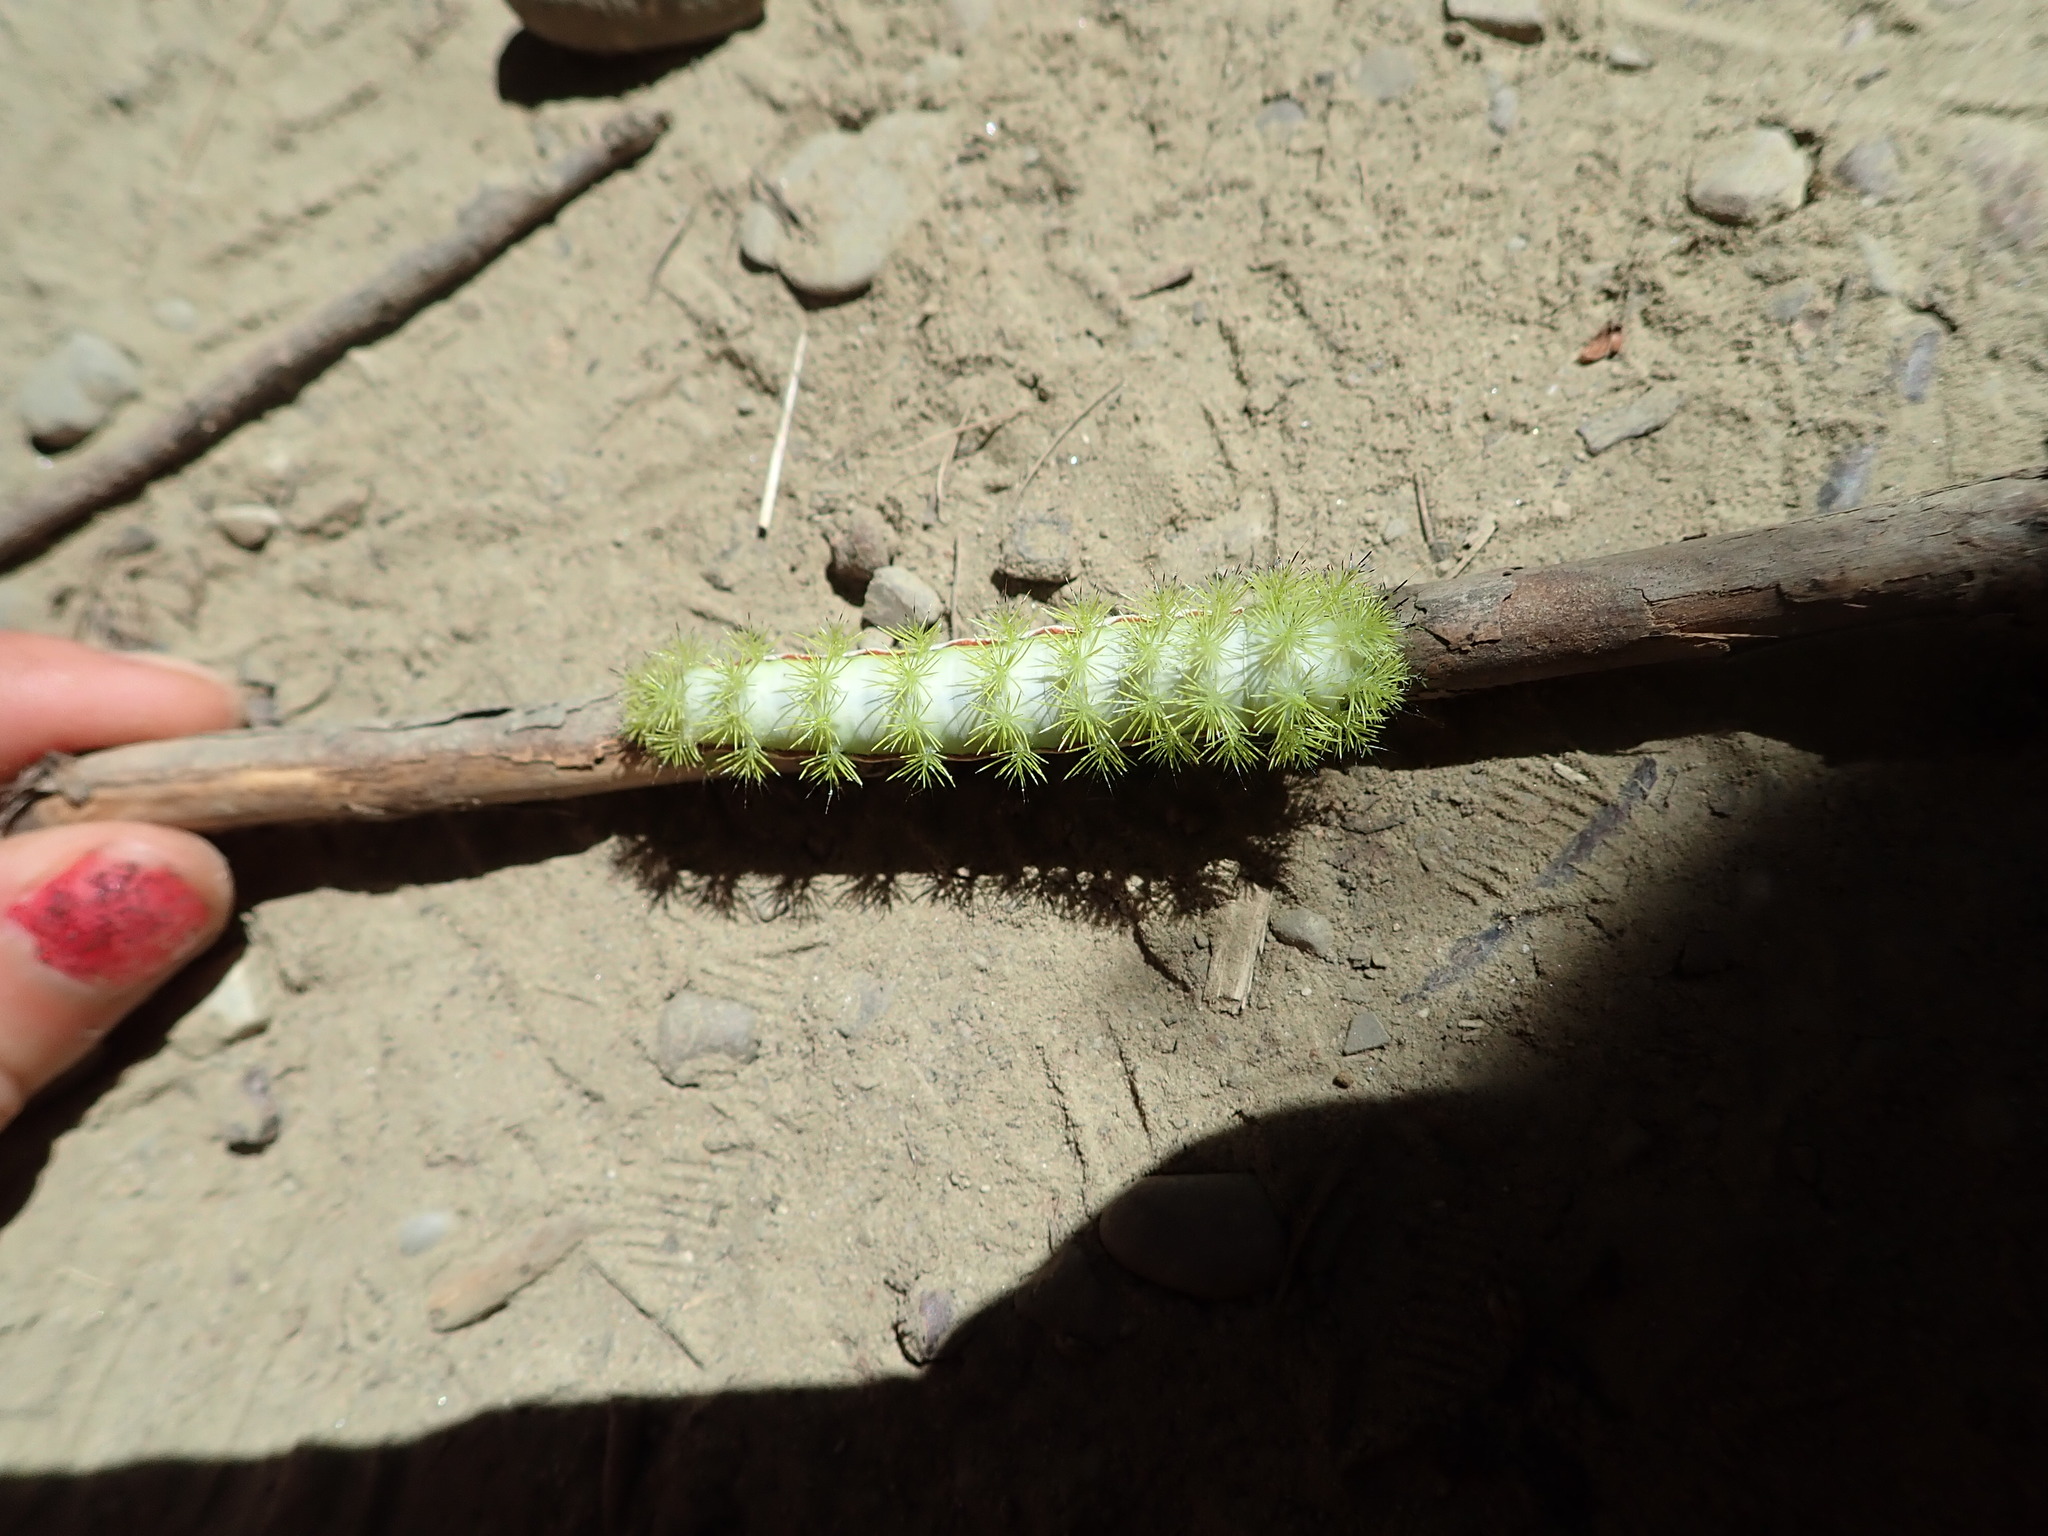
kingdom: Animalia
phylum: Arthropoda
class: Insecta
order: Lepidoptera
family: Saturniidae
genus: Automeris
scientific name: Automeris io
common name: Io moth
